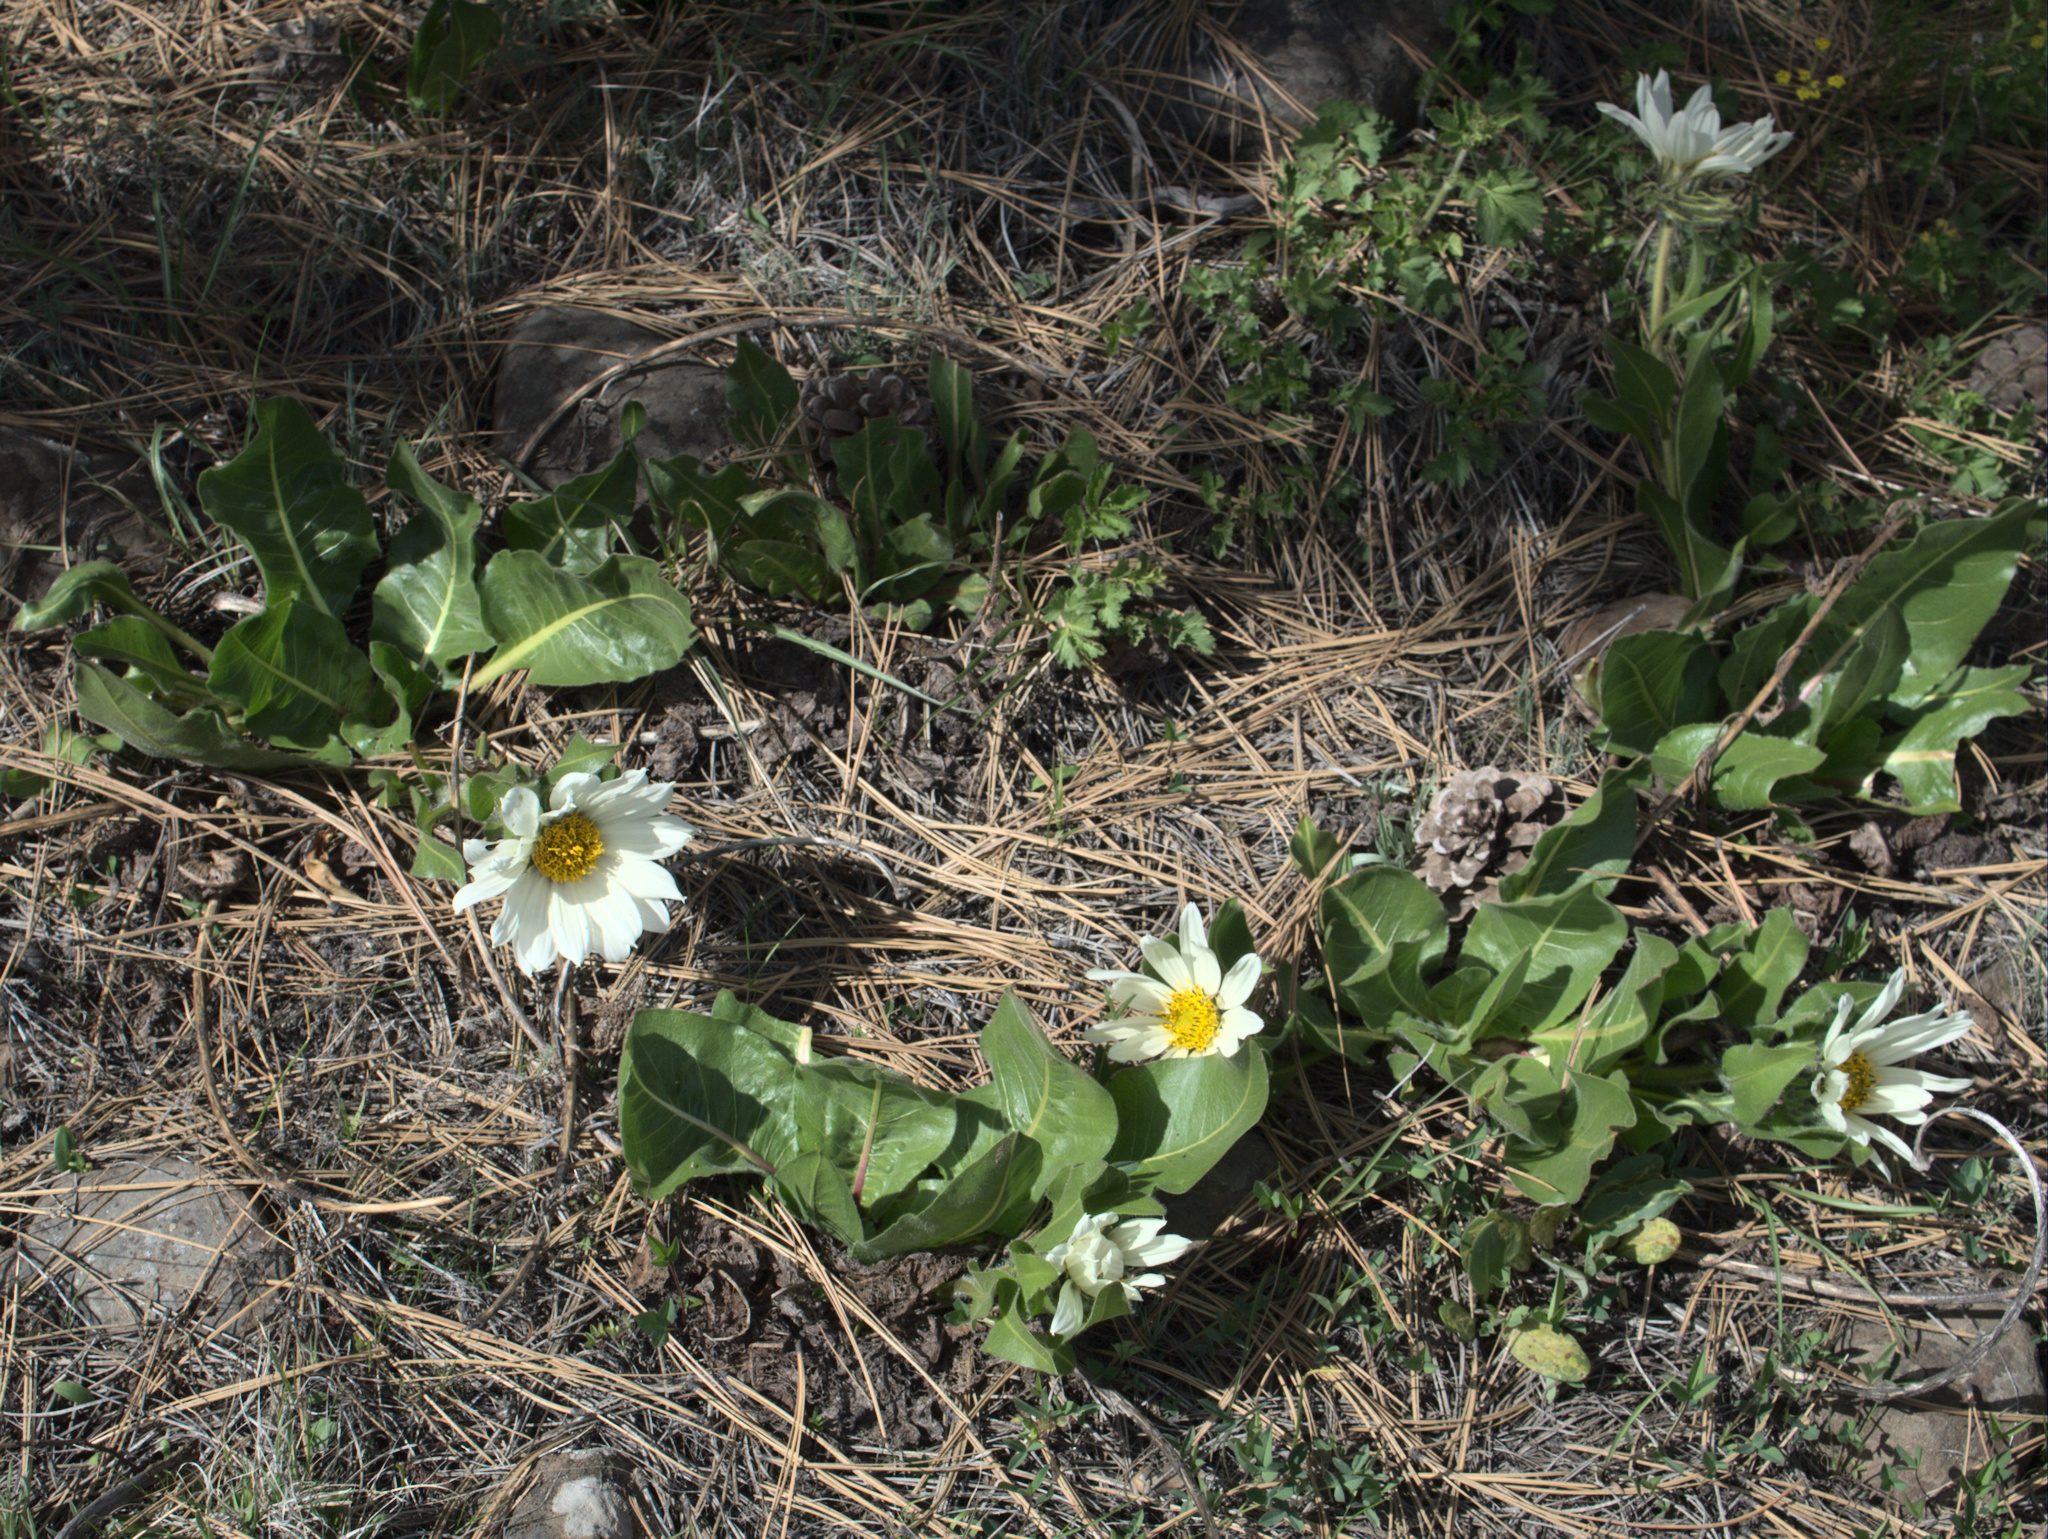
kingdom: Plantae
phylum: Tracheophyta
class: Magnoliopsida
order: Asterales
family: Asteraceae
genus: Wyethia
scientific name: Wyethia helianthoides
